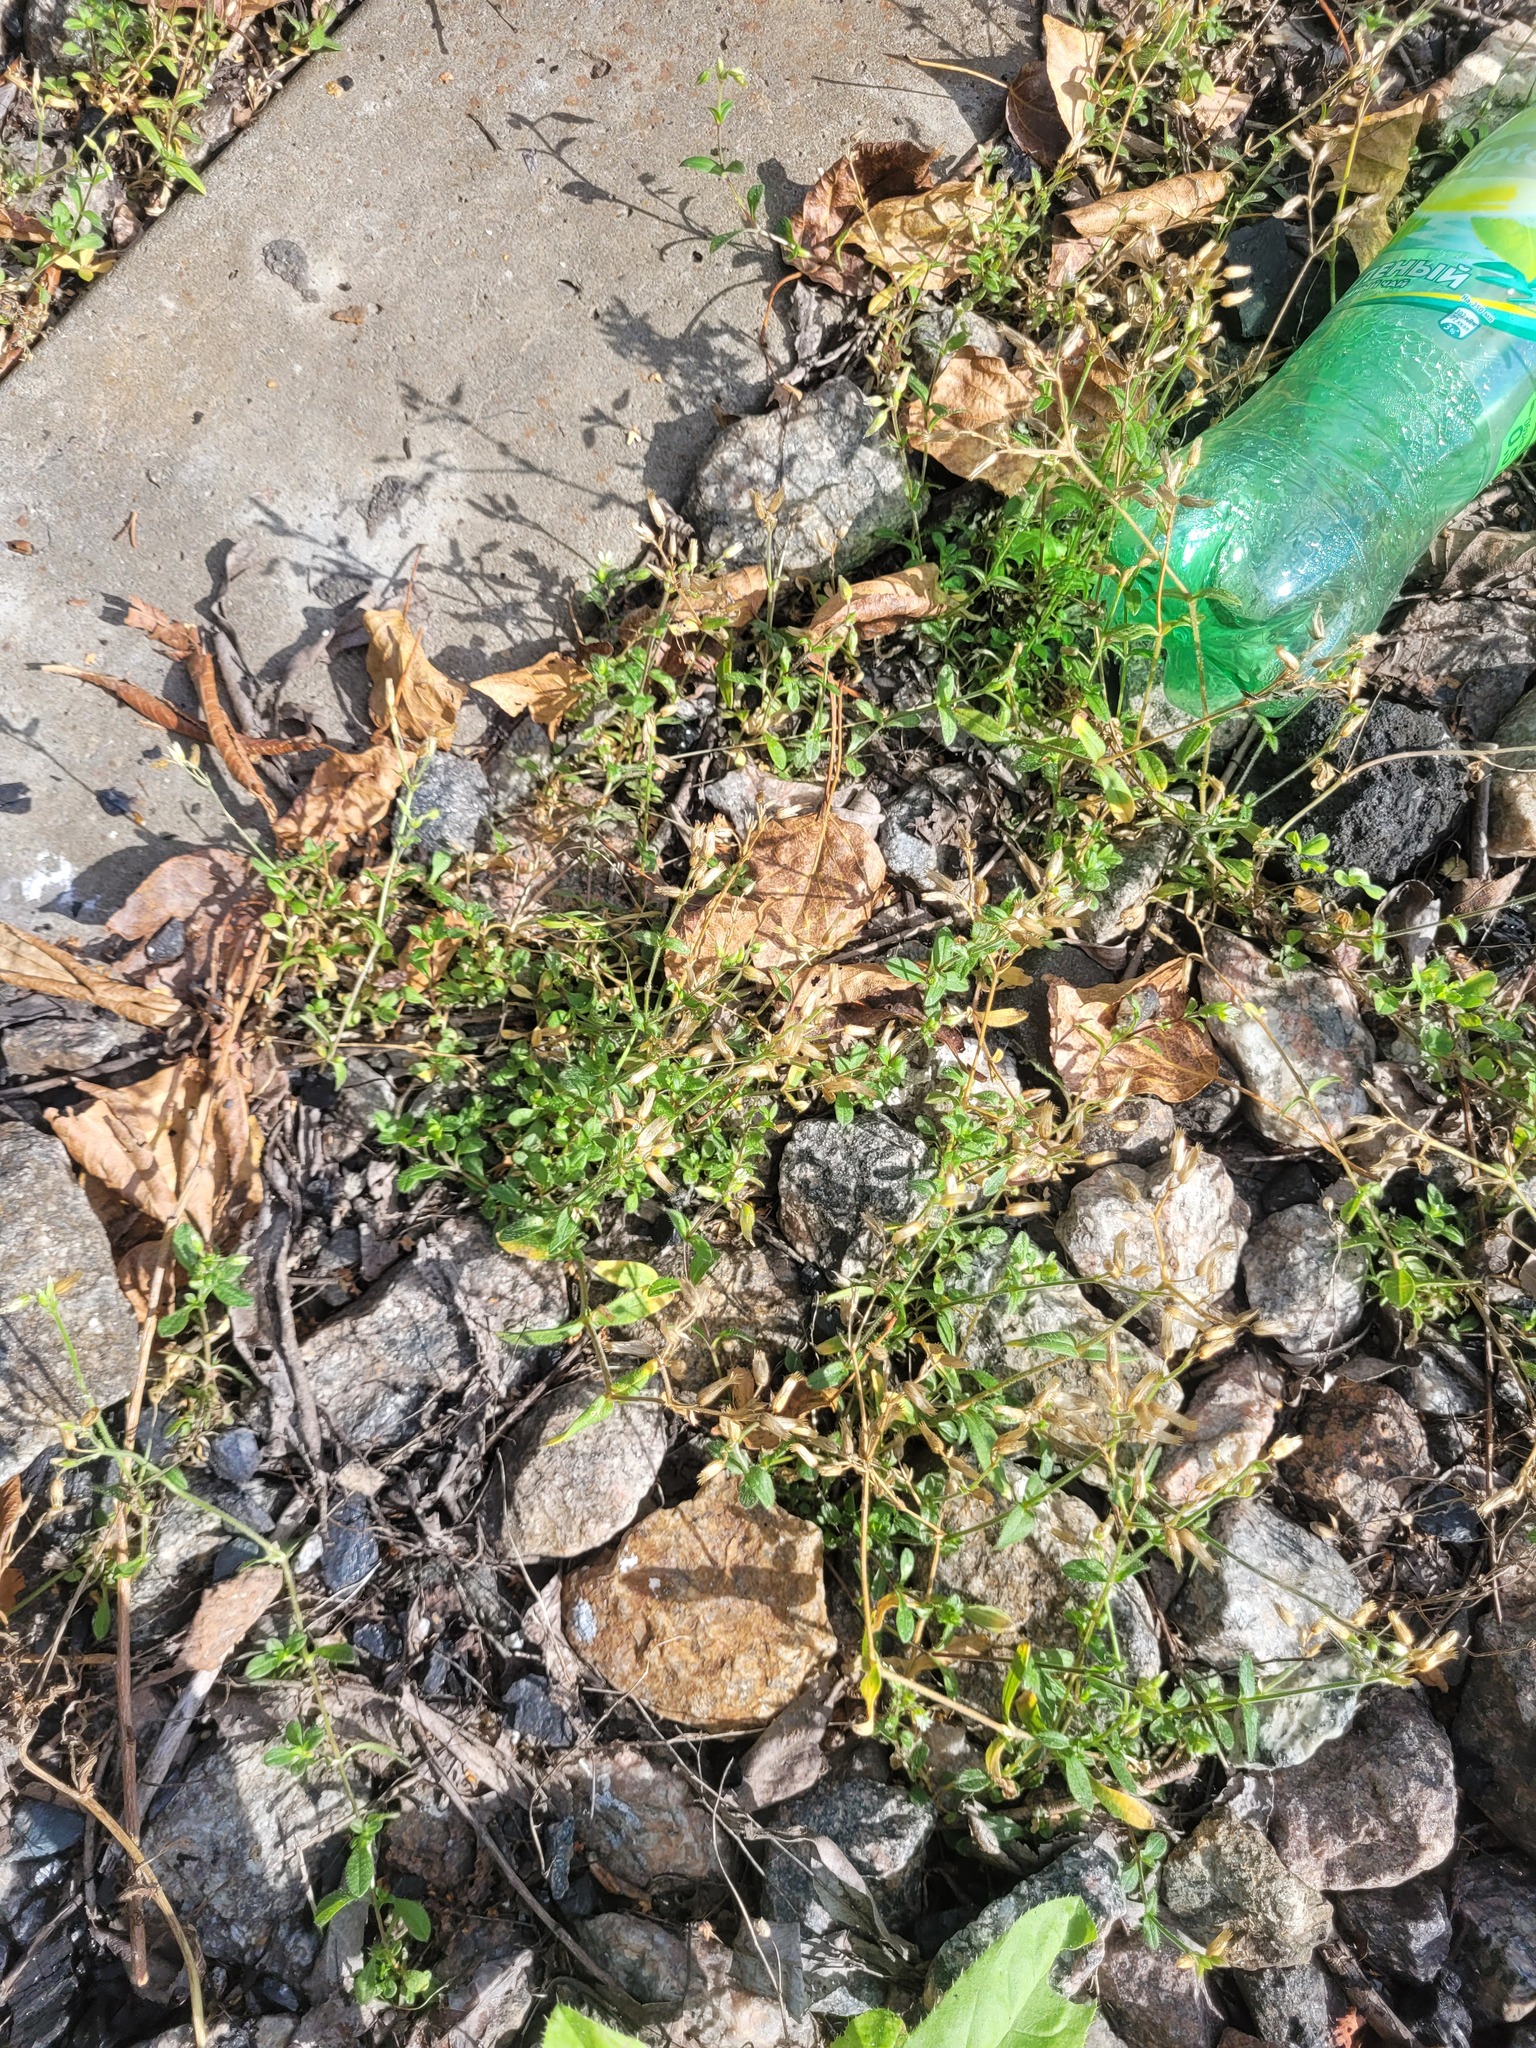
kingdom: Plantae
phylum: Tracheophyta
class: Magnoliopsida
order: Caryophyllales
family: Caryophyllaceae
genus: Cerastium
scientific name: Cerastium holosteoides
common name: Big chickweed
